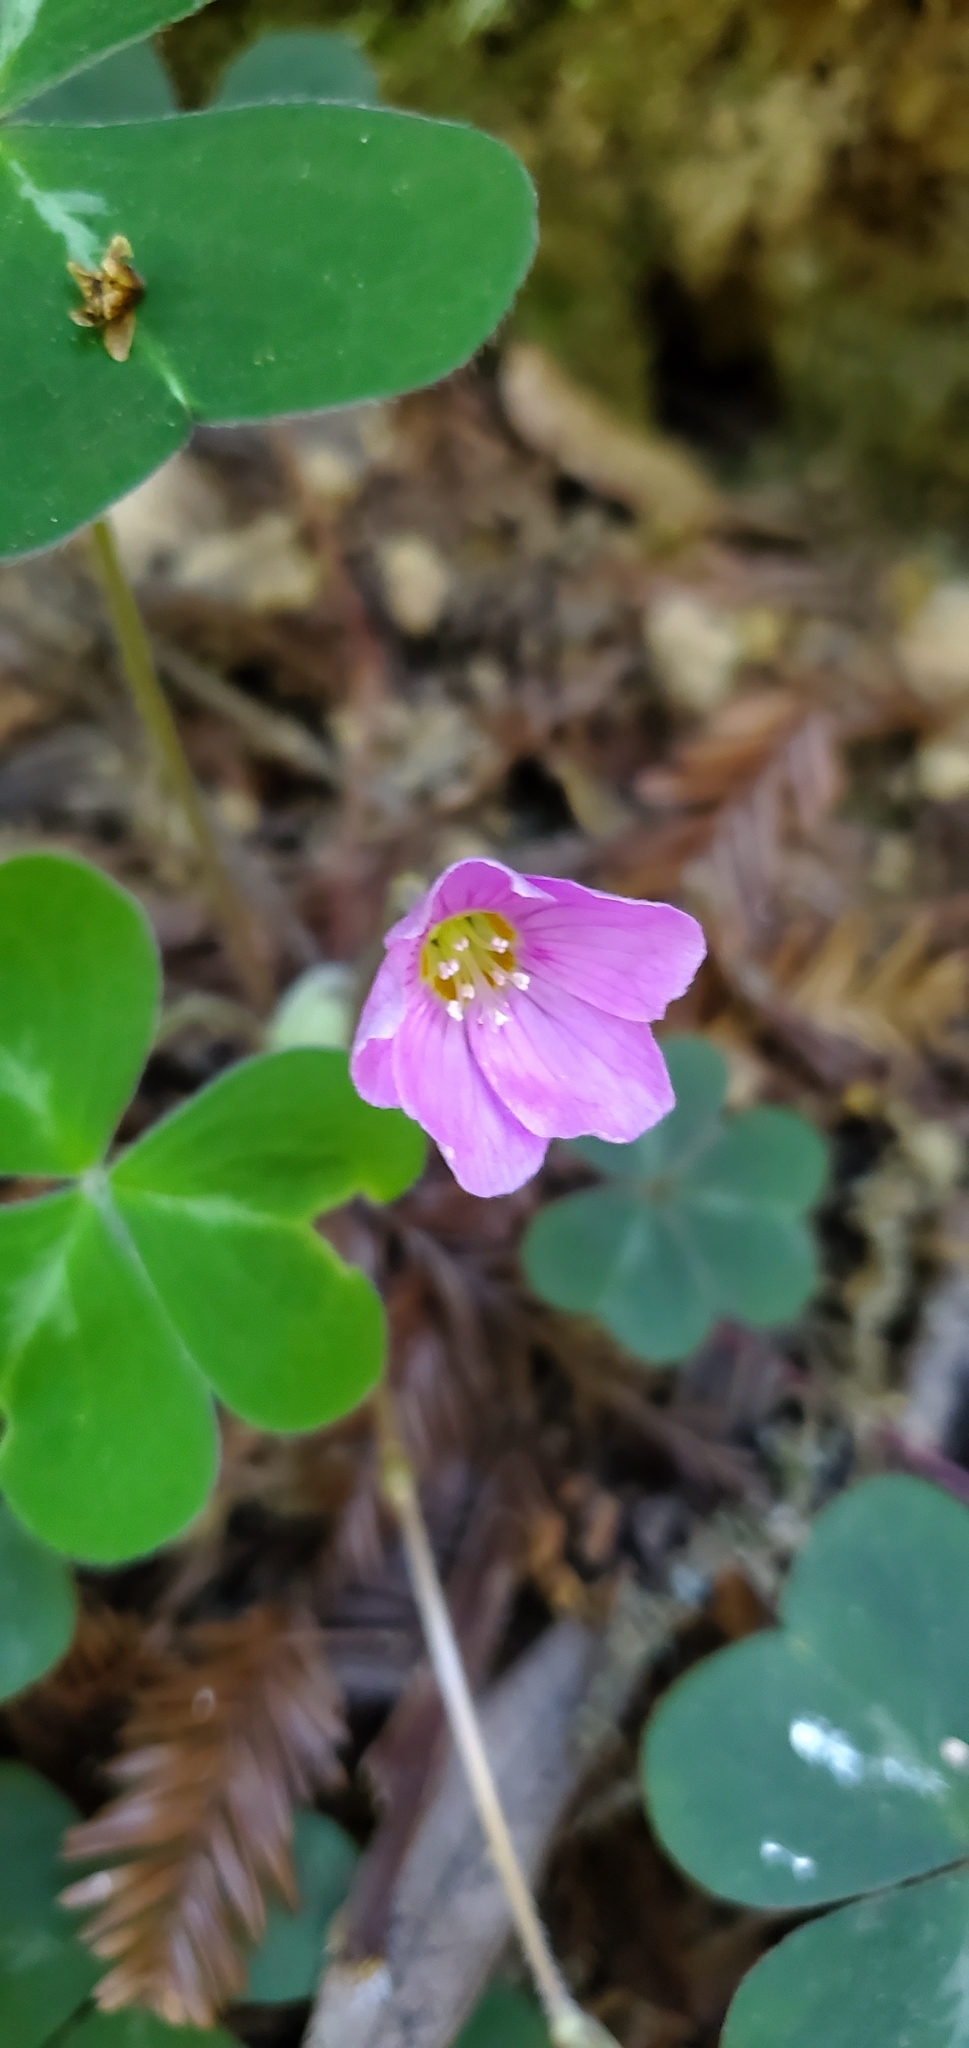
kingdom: Plantae
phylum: Tracheophyta
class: Magnoliopsida
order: Oxalidales
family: Oxalidaceae
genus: Oxalis
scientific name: Oxalis oregana
